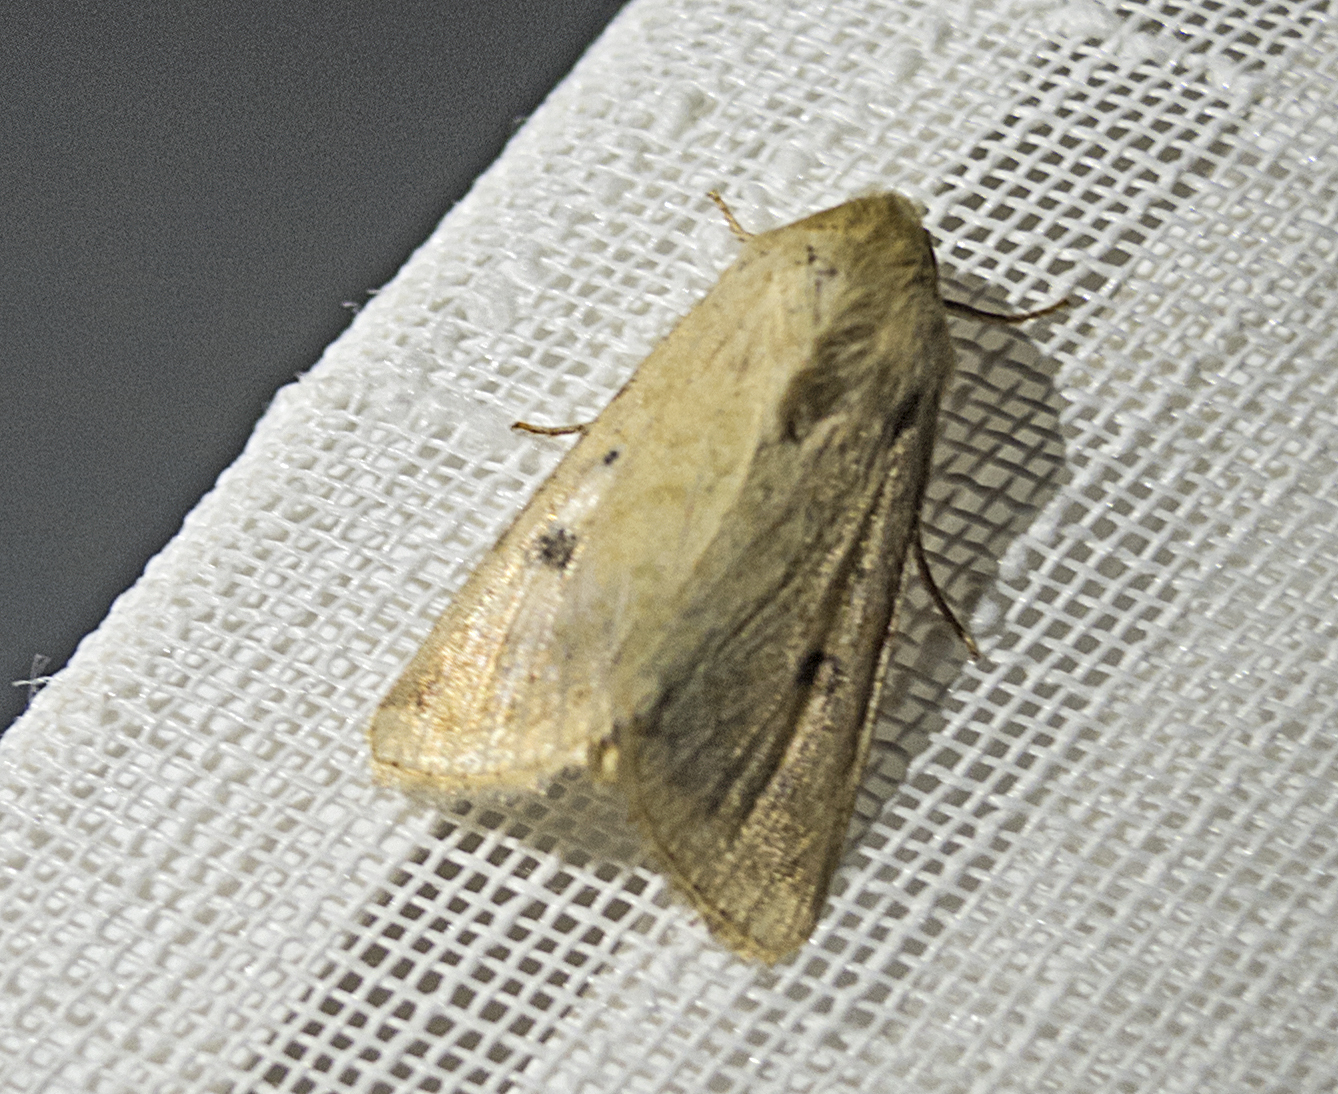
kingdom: Animalia
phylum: Arthropoda
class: Insecta
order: Lepidoptera
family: Noctuidae
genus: Helicoverpa
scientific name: Helicoverpa armigera
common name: Cotton bollworm
